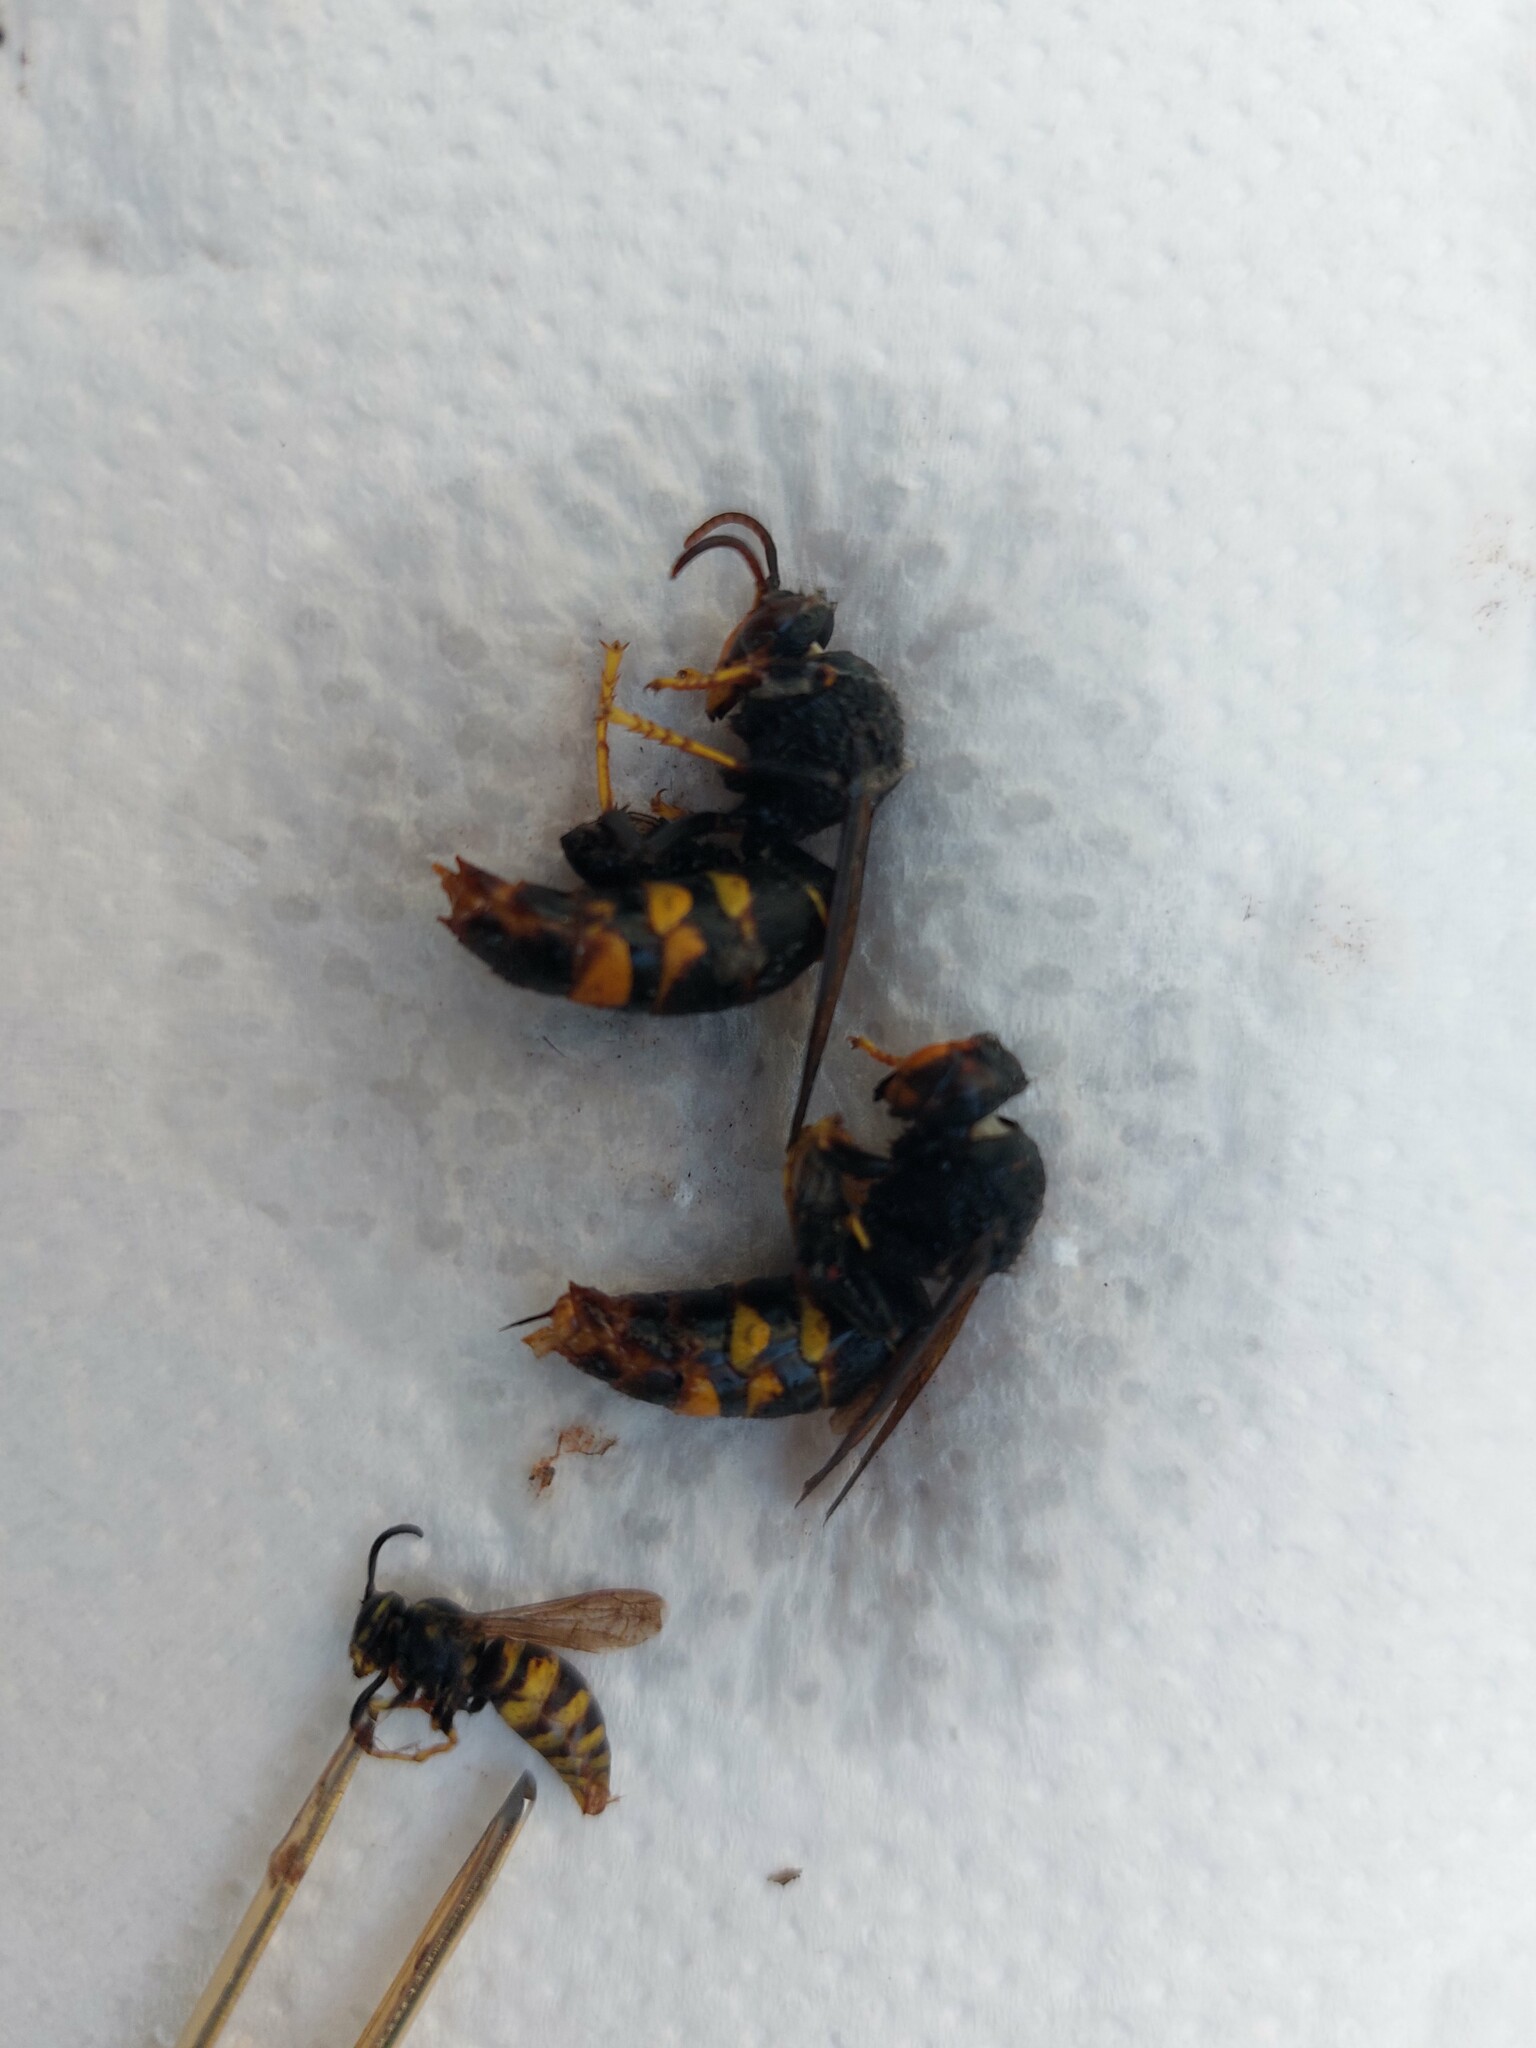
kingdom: Animalia
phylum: Arthropoda
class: Insecta
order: Hymenoptera
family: Vespidae
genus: Vespa
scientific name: Vespa velutina
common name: Asian hornet
